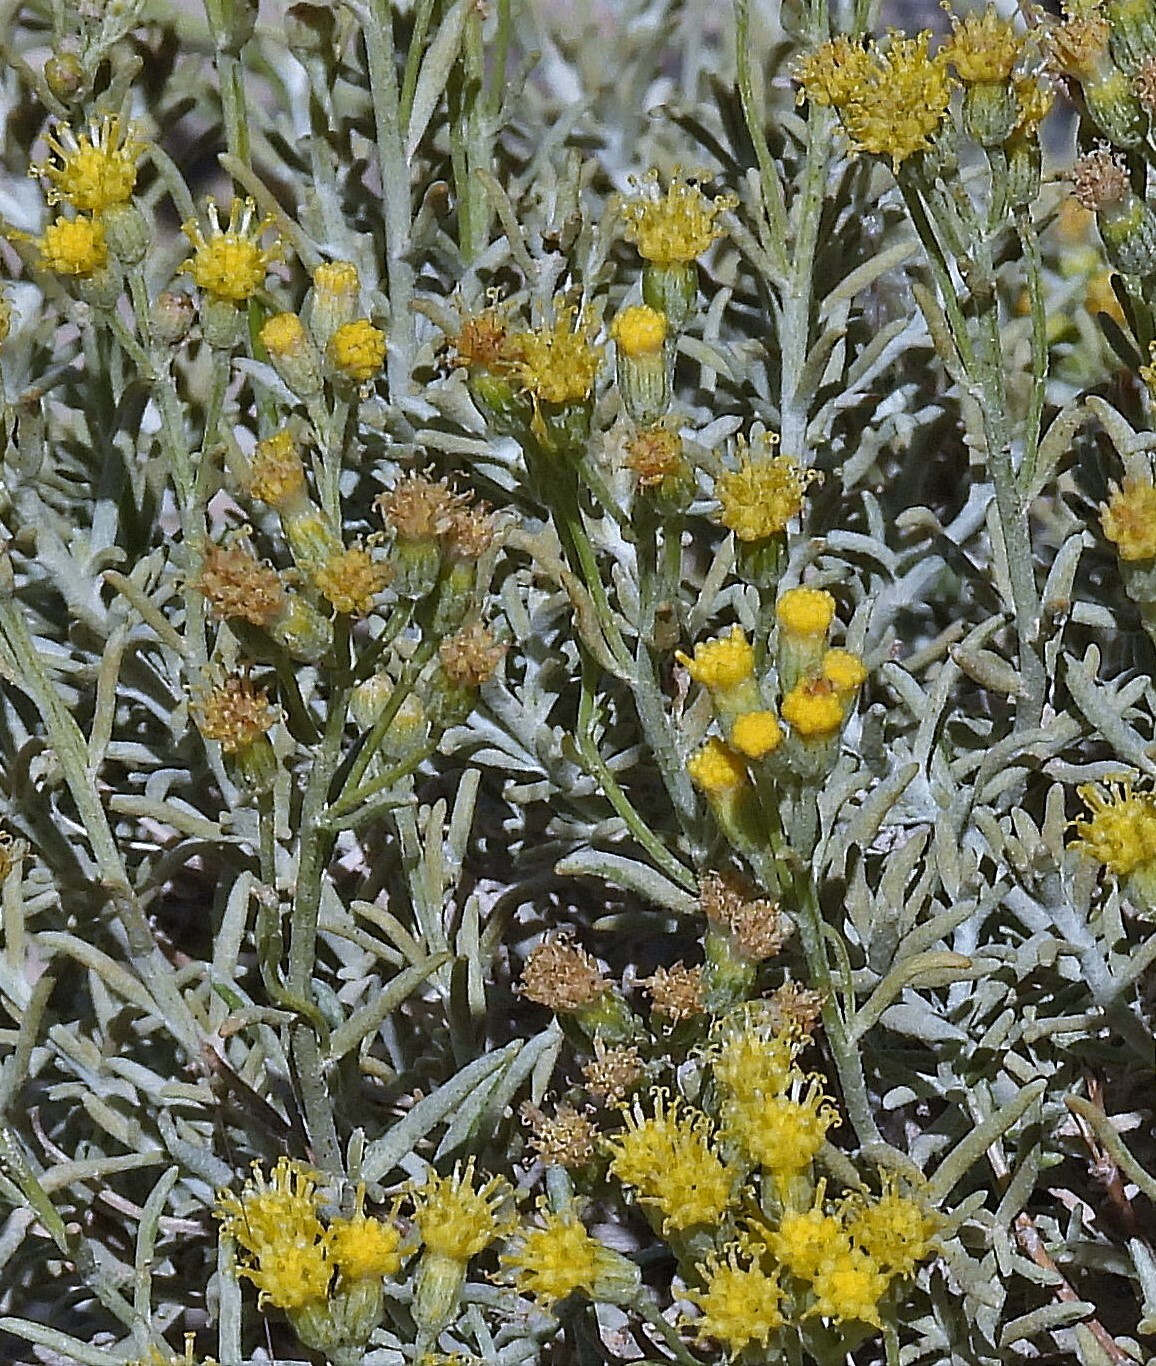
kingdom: Plantae
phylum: Tracheophyta
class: Magnoliopsida
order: Asterales
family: Asteraceae
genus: Senecio
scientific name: Senecio filaginoides
